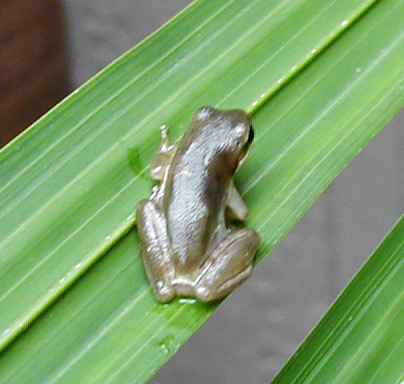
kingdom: Animalia
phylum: Chordata
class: Amphibia
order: Anura
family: Hylidae
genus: Dryophytes
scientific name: Dryophytes squirellus
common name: Squirrel treefrog
